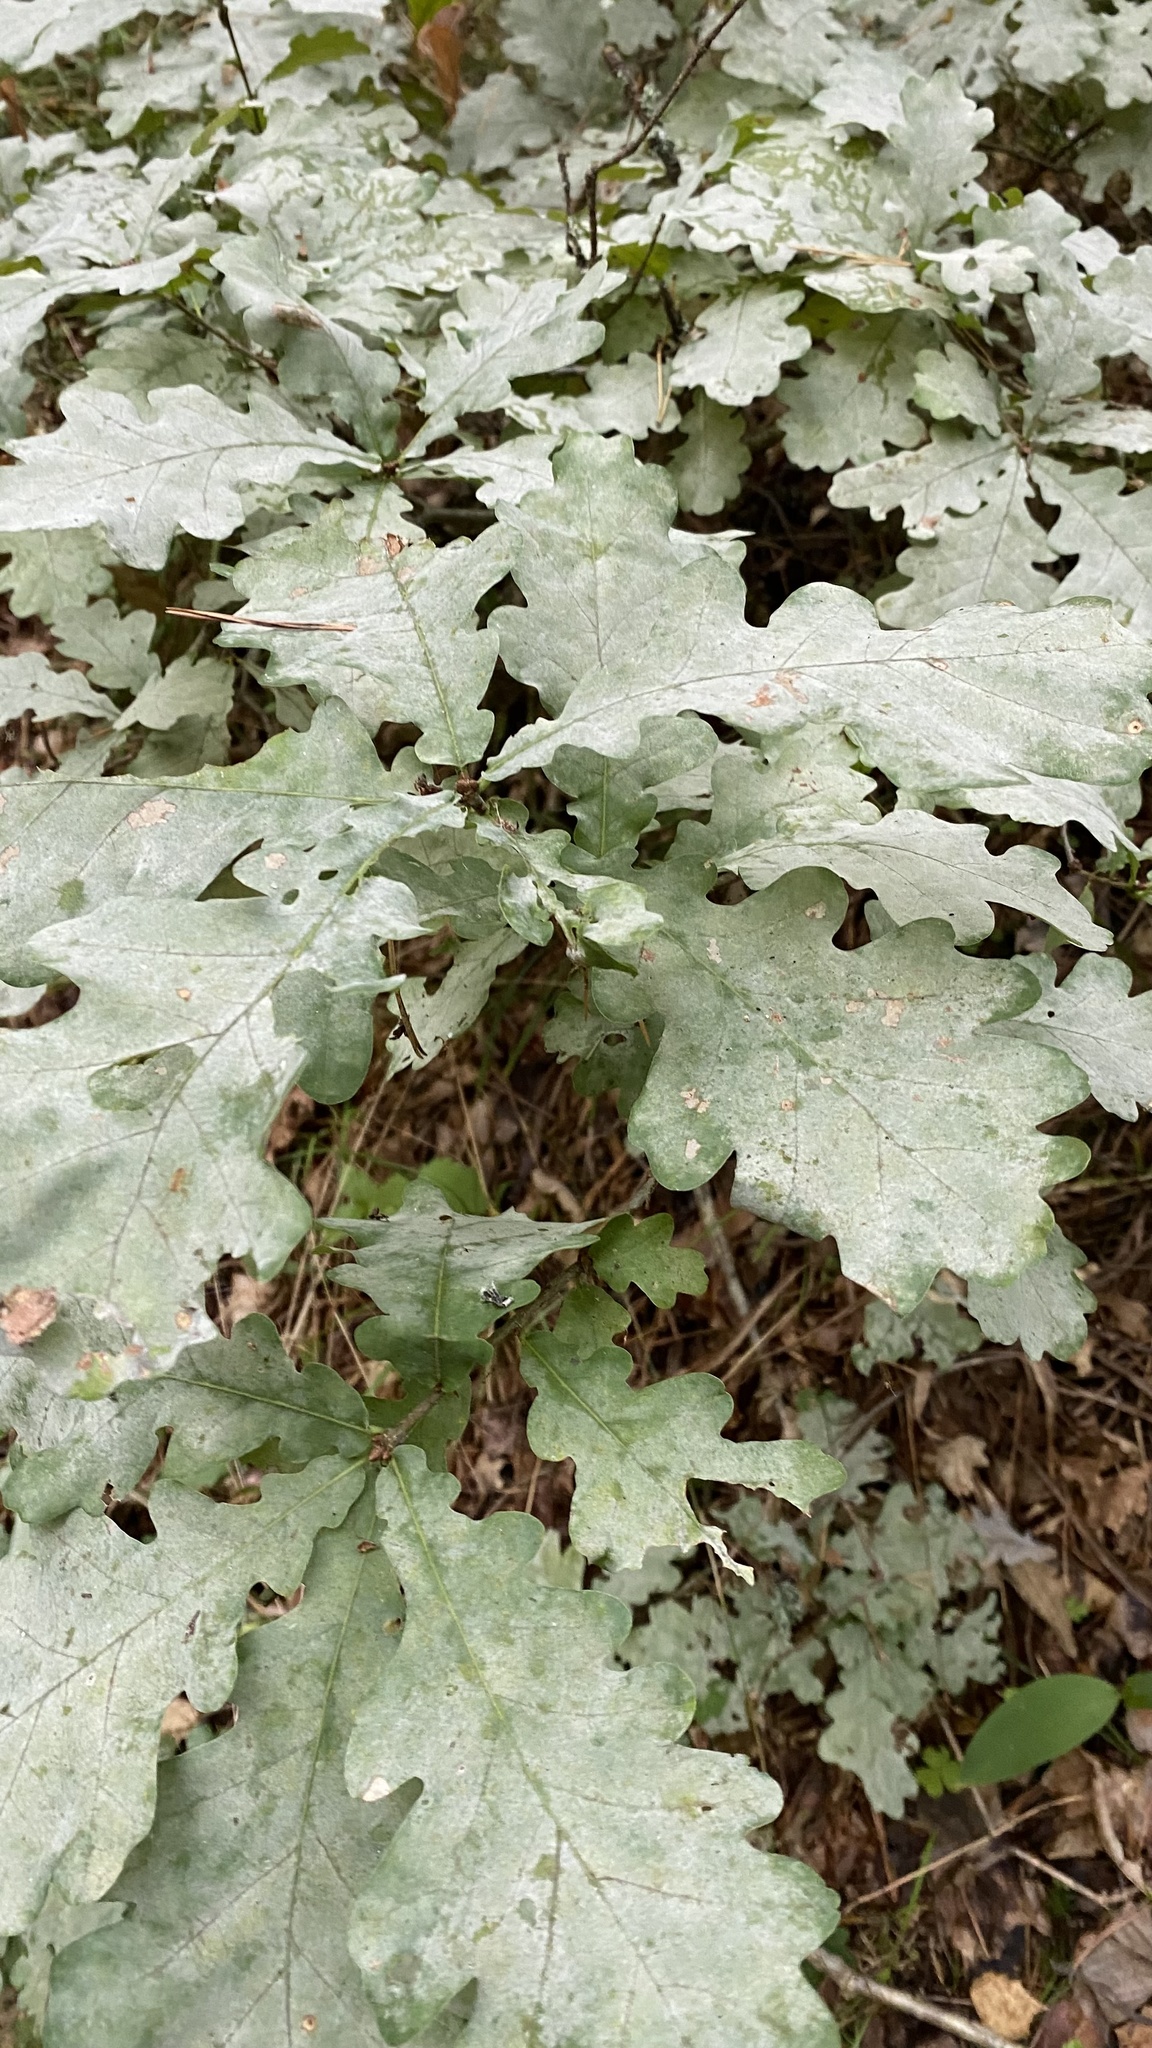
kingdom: Fungi
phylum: Ascomycota
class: Leotiomycetes
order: Helotiales
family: Erysiphaceae
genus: Erysiphe
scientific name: Erysiphe alphitoides
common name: Oak mildew
